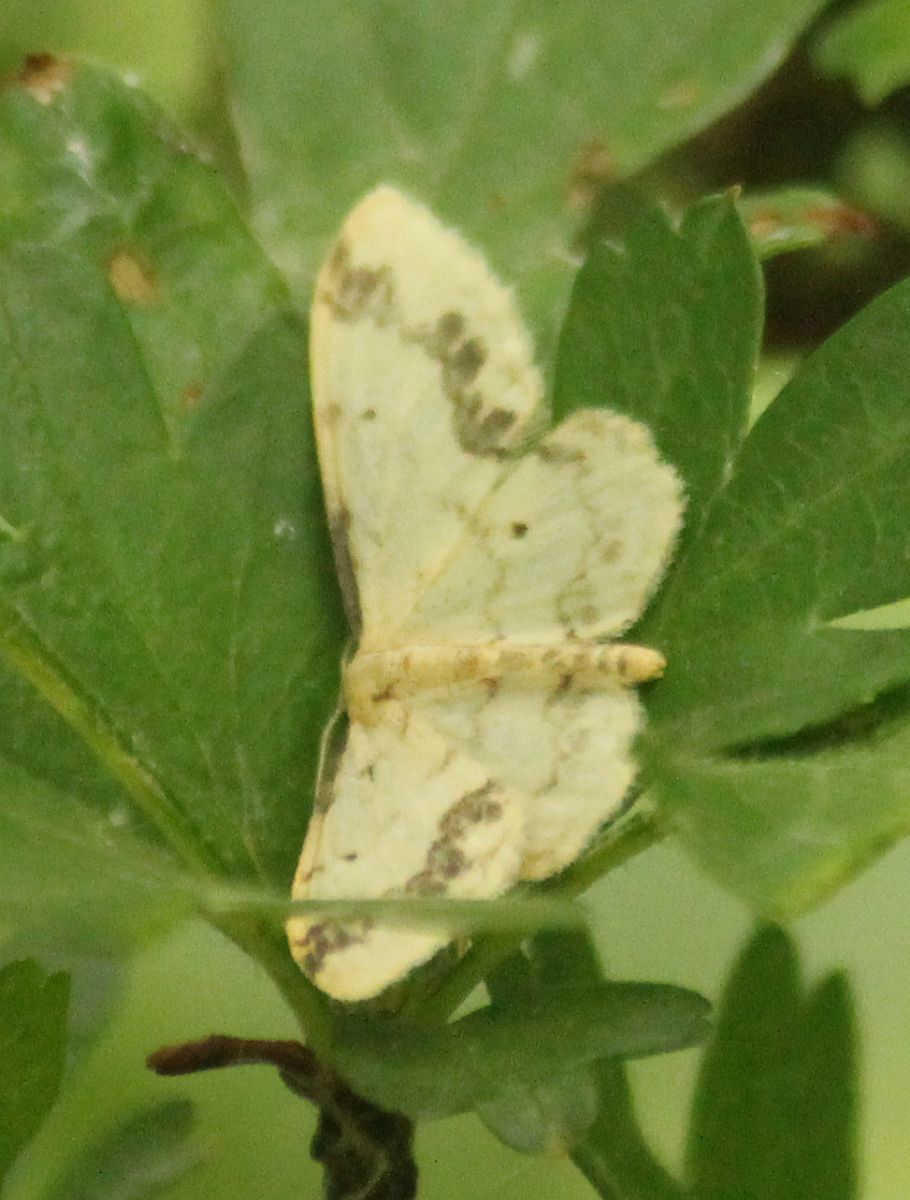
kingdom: Animalia
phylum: Arthropoda
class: Insecta
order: Lepidoptera
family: Geometridae
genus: Idaea
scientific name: Idaea trigeminata
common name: Treble brown spot
